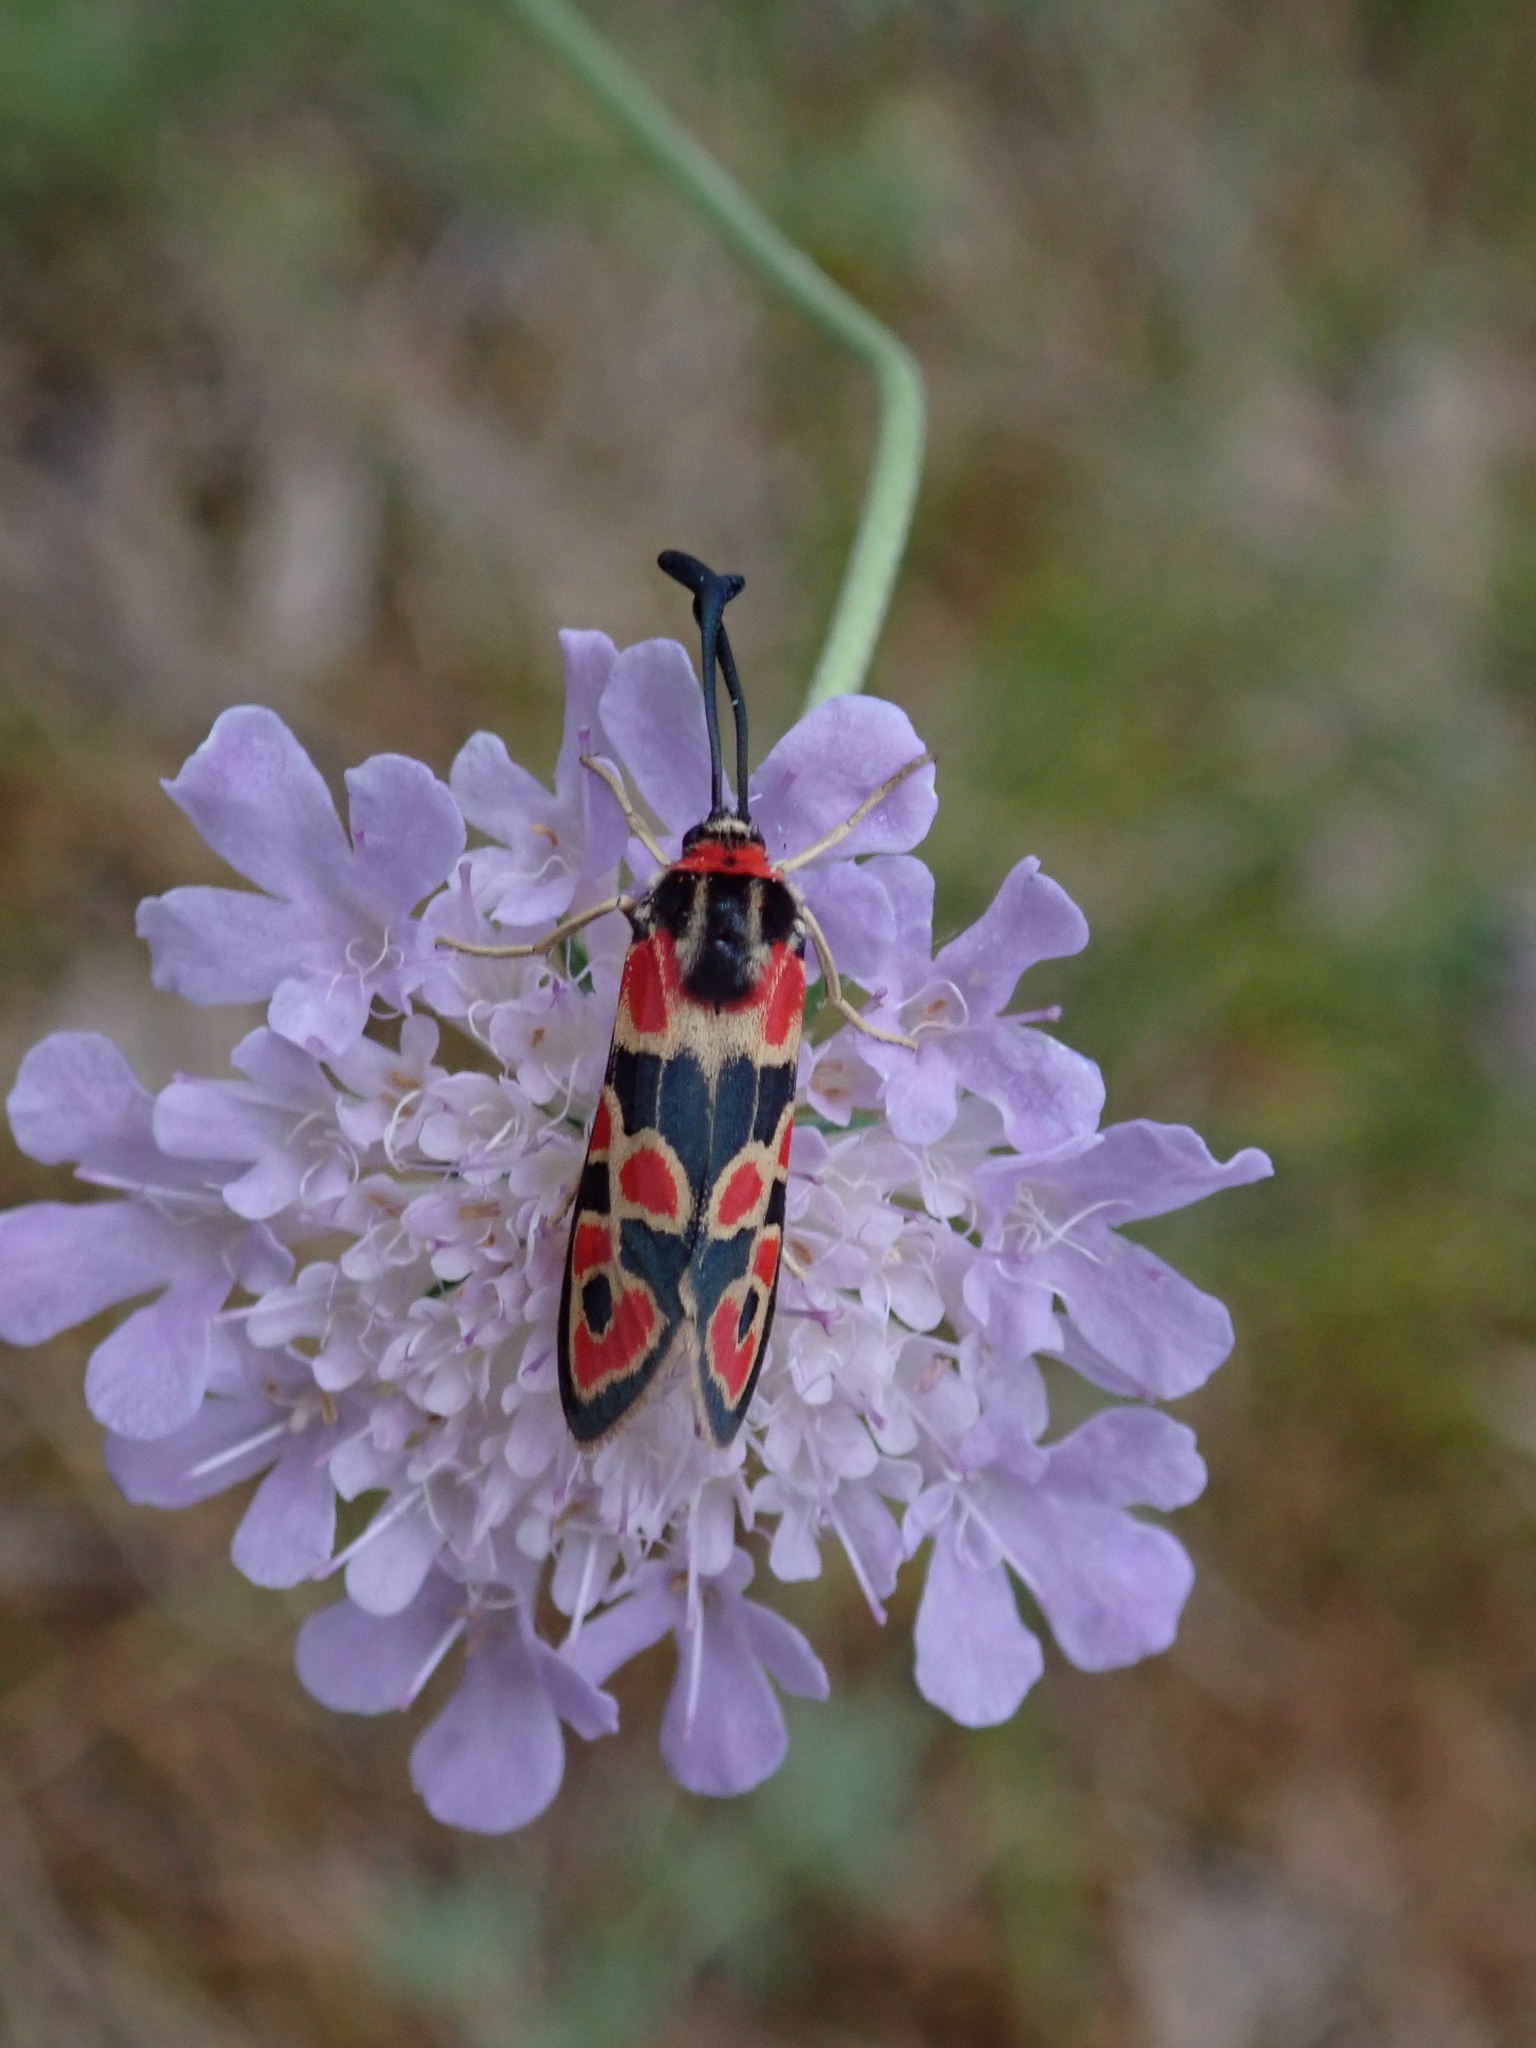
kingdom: Animalia
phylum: Arthropoda
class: Insecta
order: Lepidoptera
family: Zygaenidae
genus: Zygaena
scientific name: Zygaena fausta
